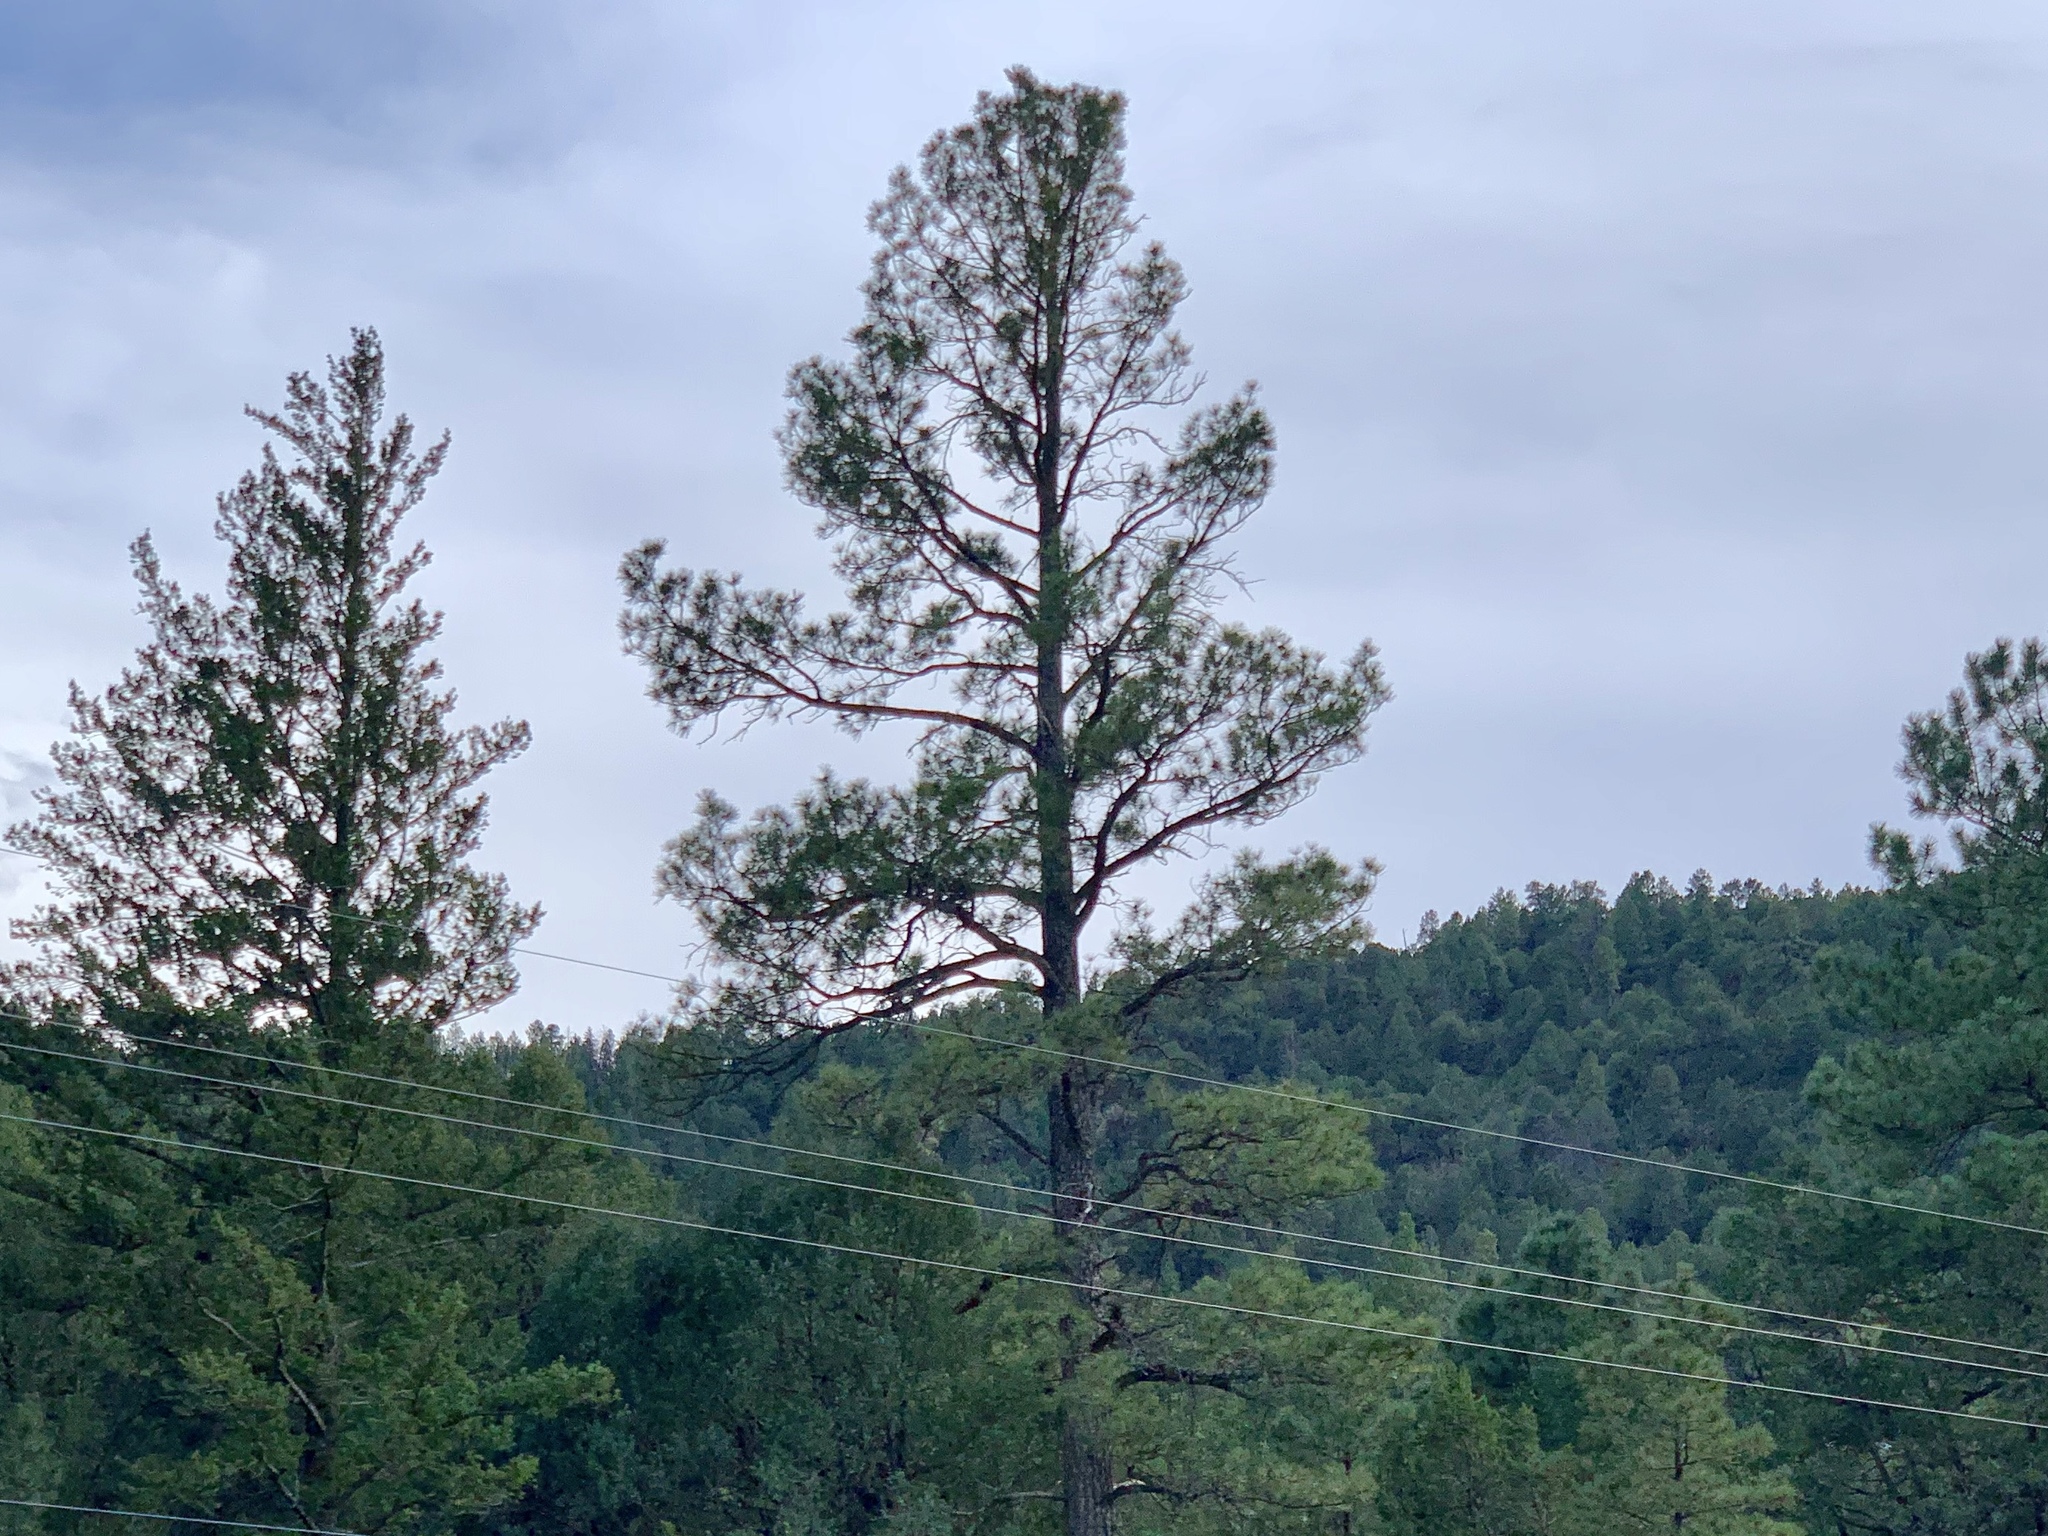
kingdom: Plantae
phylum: Tracheophyta
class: Pinopsida
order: Pinales
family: Pinaceae
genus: Pinus
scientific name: Pinus ponderosa
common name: Western yellow-pine
